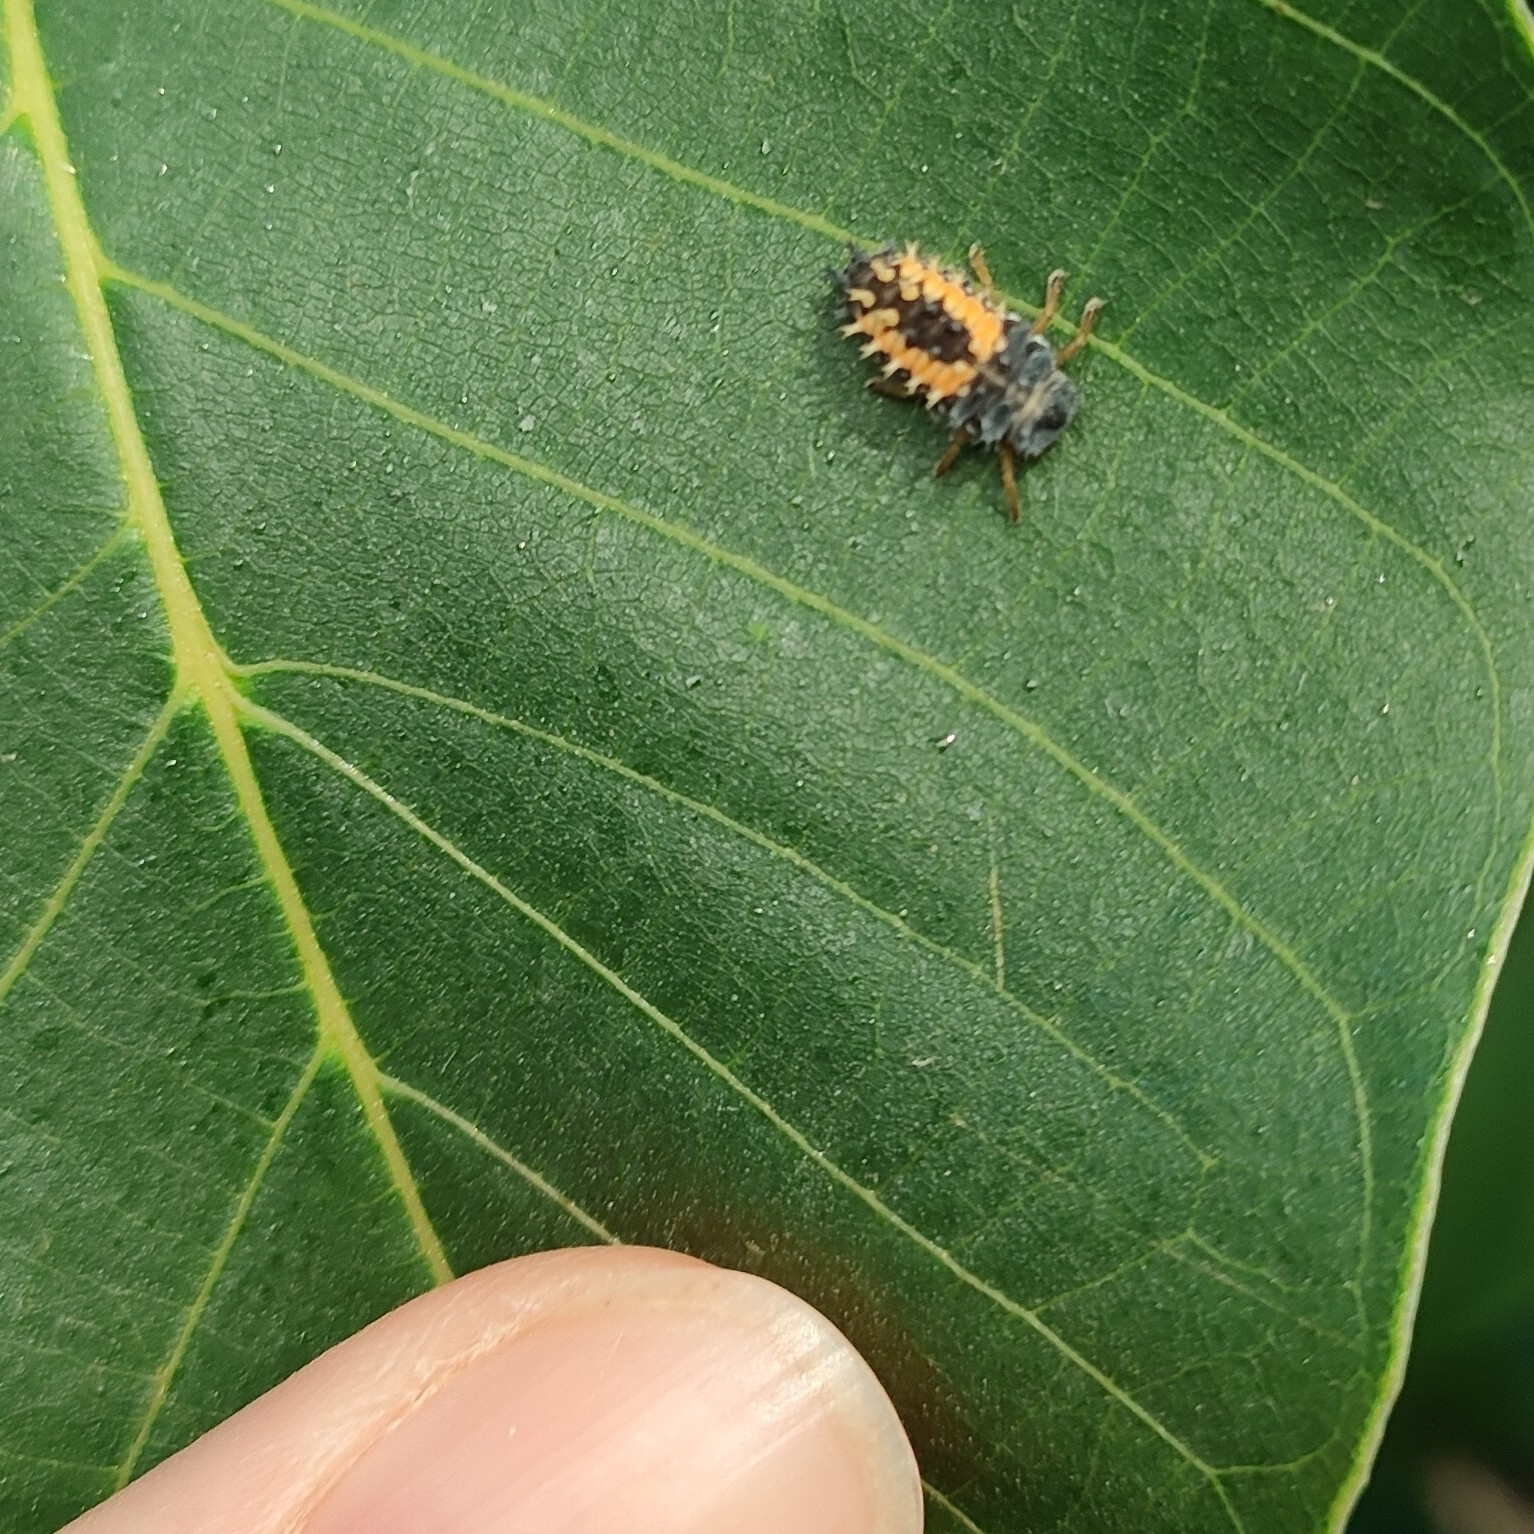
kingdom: Animalia
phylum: Arthropoda
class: Insecta
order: Coleoptera
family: Coccinellidae
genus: Harmonia
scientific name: Harmonia axyridis
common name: Harlequin ladybird
